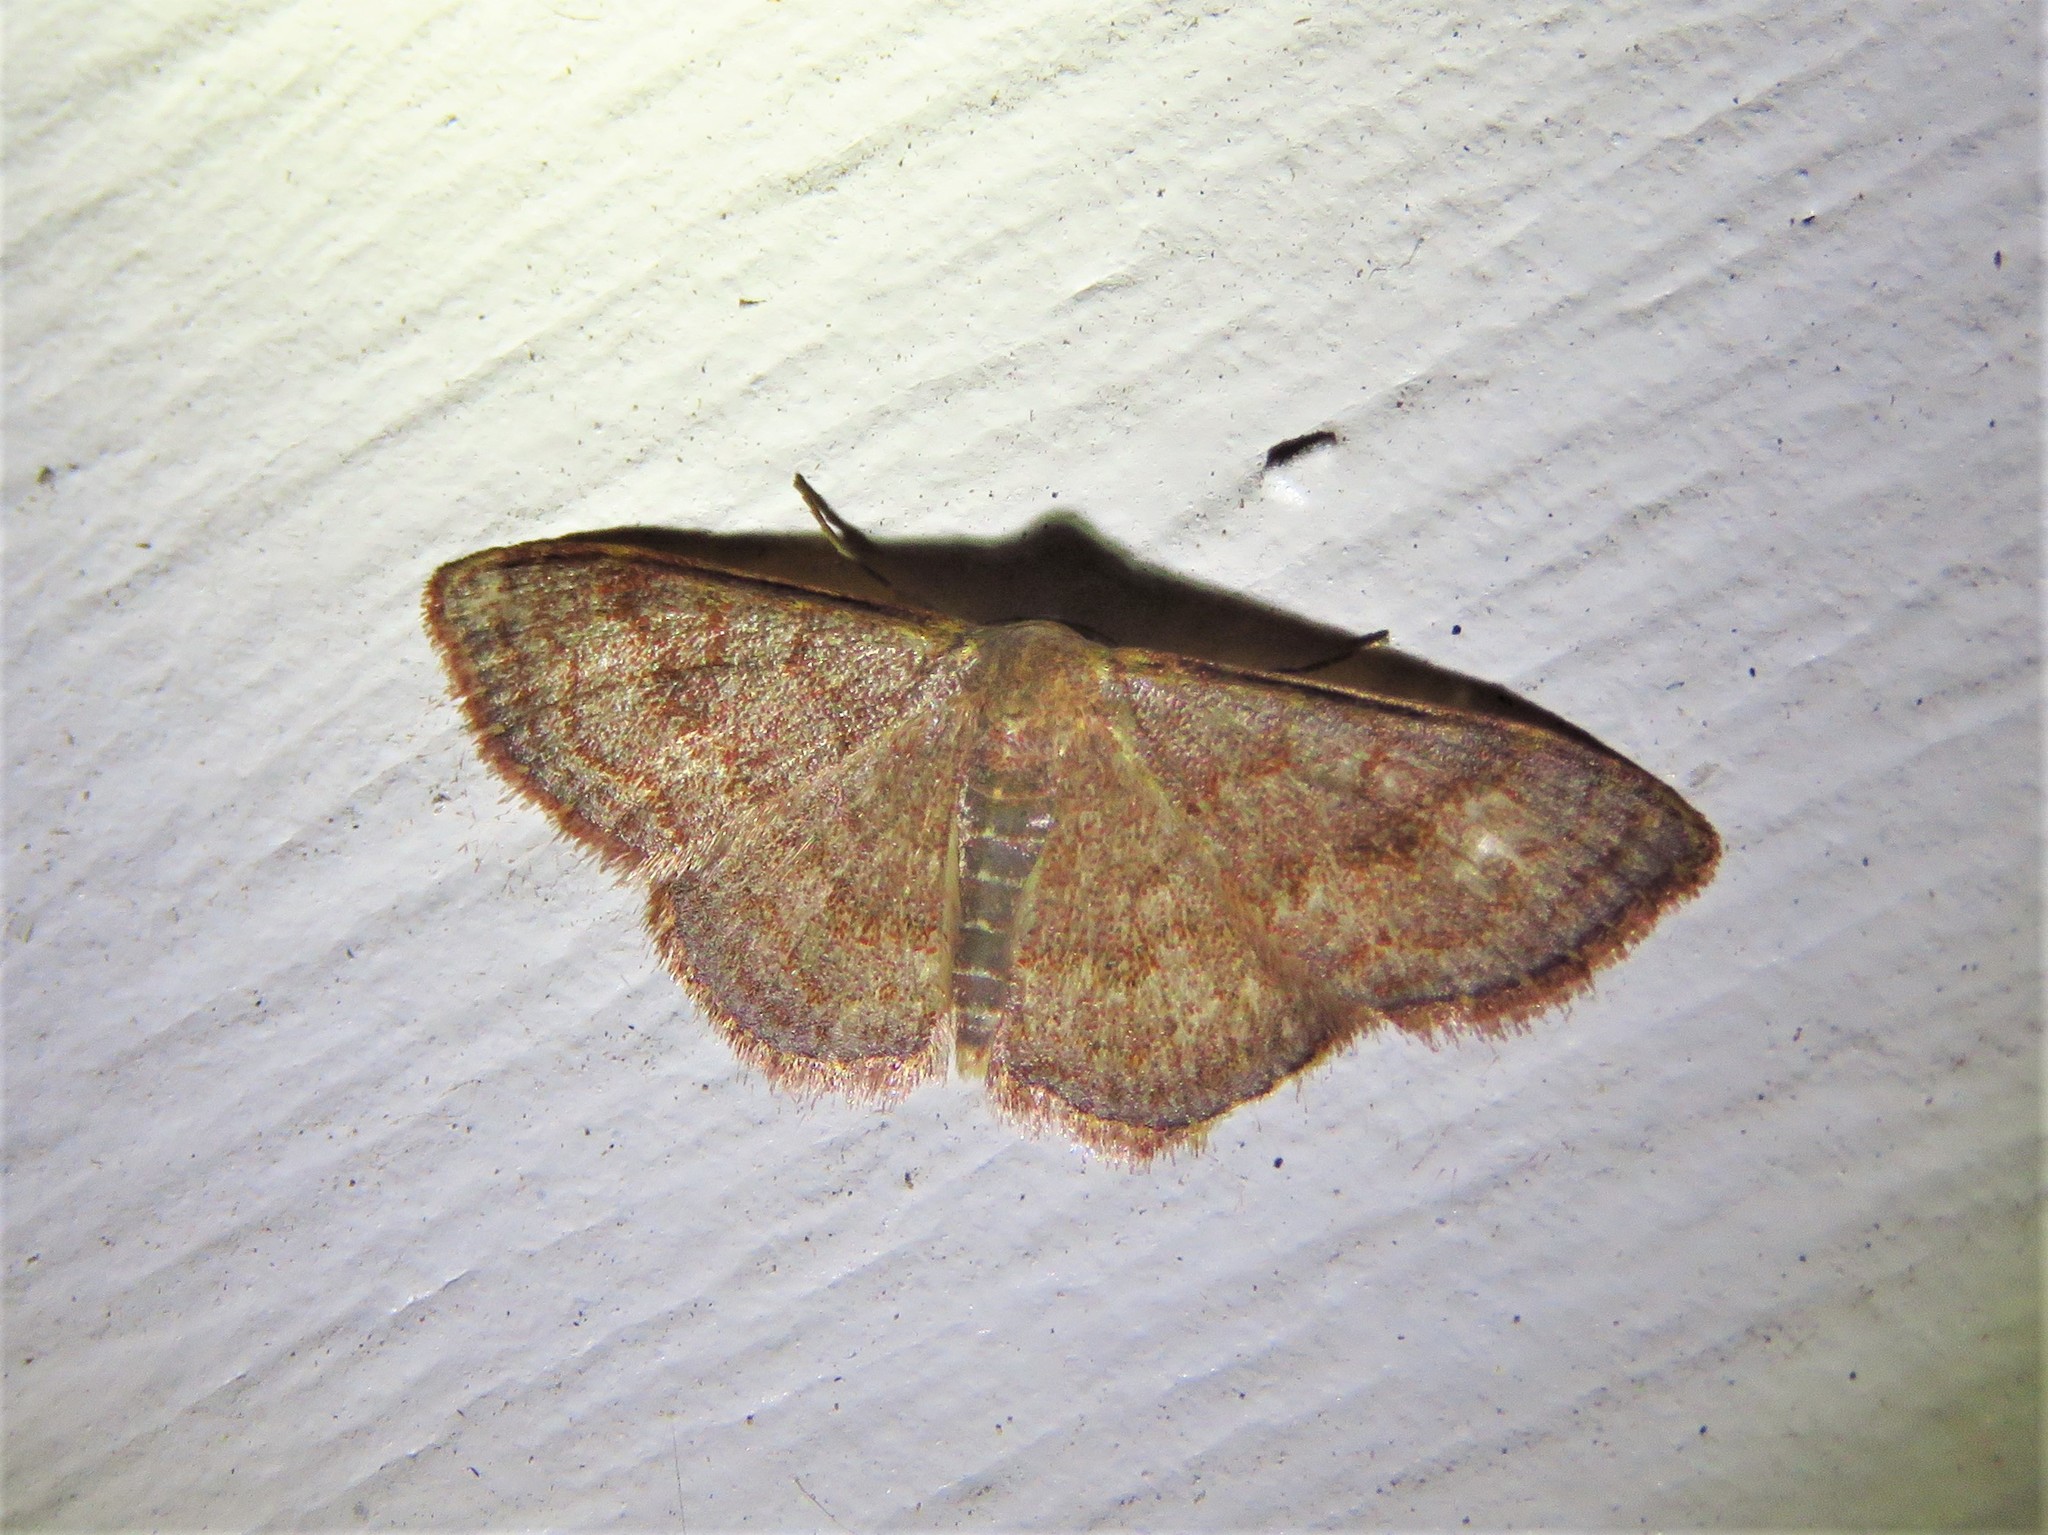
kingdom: Animalia
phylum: Arthropoda
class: Insecta
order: Lepidoptera
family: Geometridae
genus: Leptostales
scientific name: Leptostales pannaria
